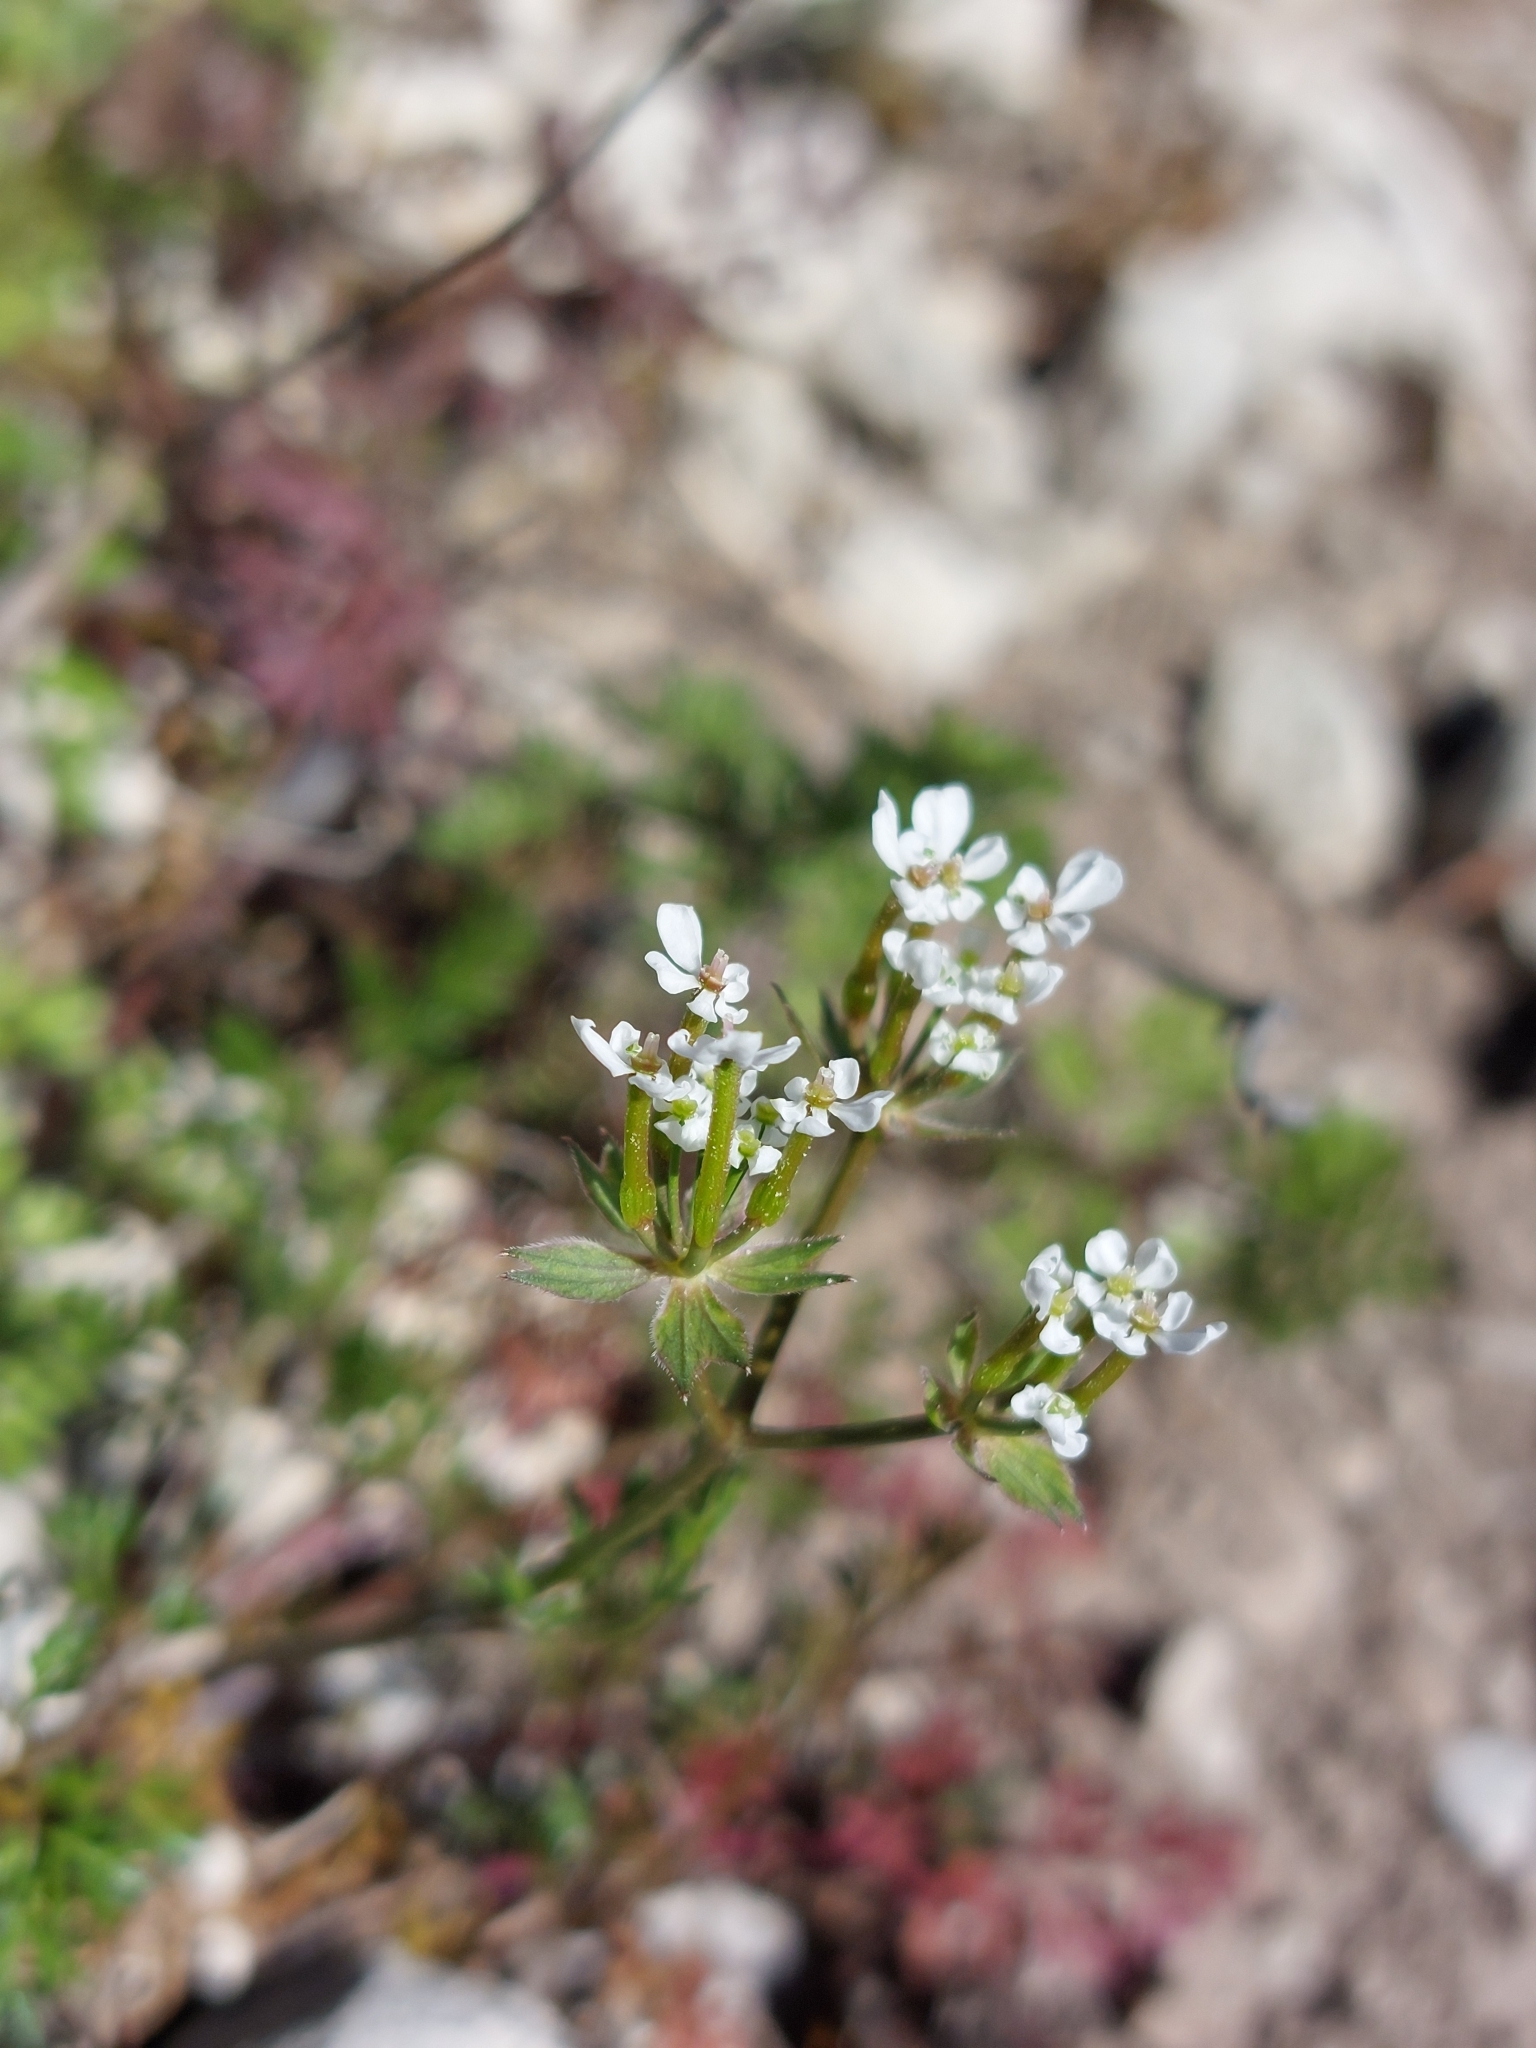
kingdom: Plantae
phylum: Tracheophyta
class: Magnoliopsida
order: Apiales
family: Apiaceae
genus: Scandix
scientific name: Scandix pecten-veneris
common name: Shepherd's-needle
